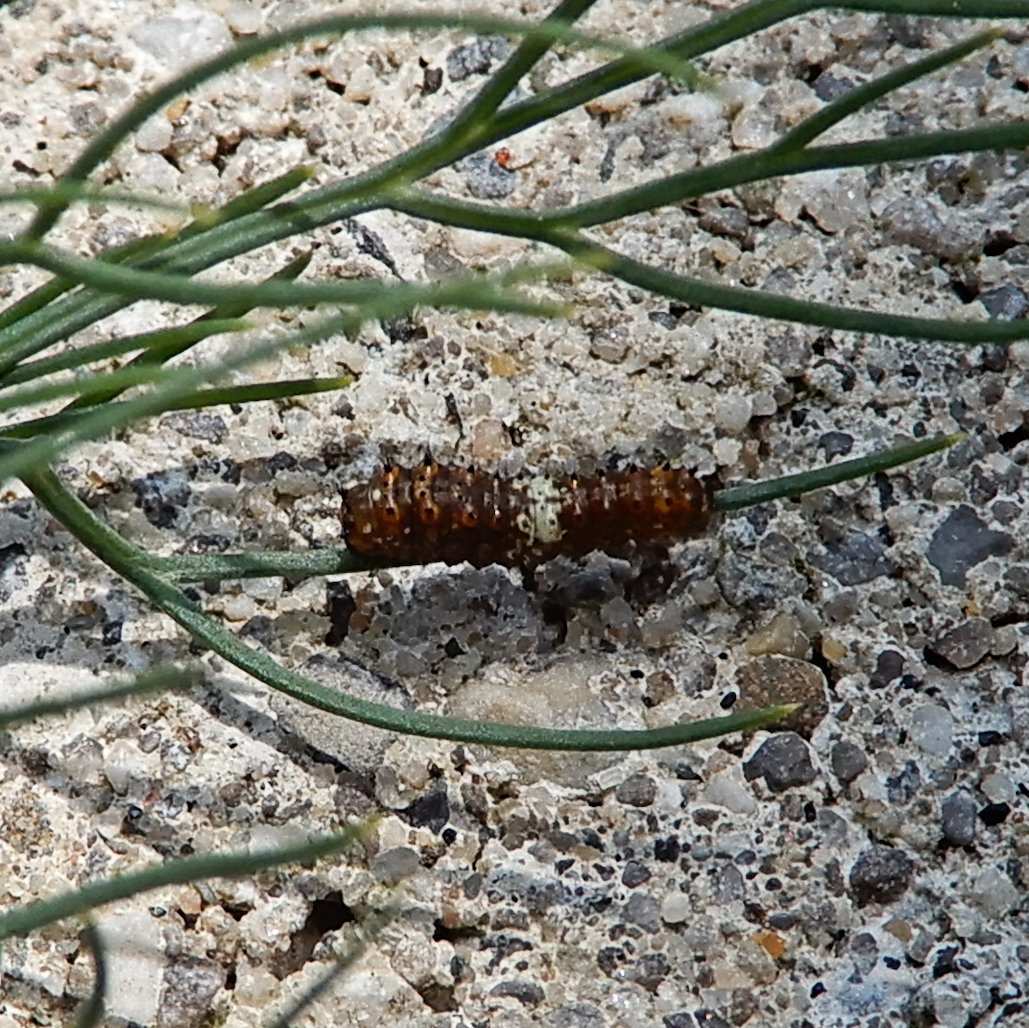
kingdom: Animalia
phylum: Arthropoda
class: Insecta
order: Lepidoptera
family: Papilionidae
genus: Papilio
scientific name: Papilio polyxenes
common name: Black swallowtail
